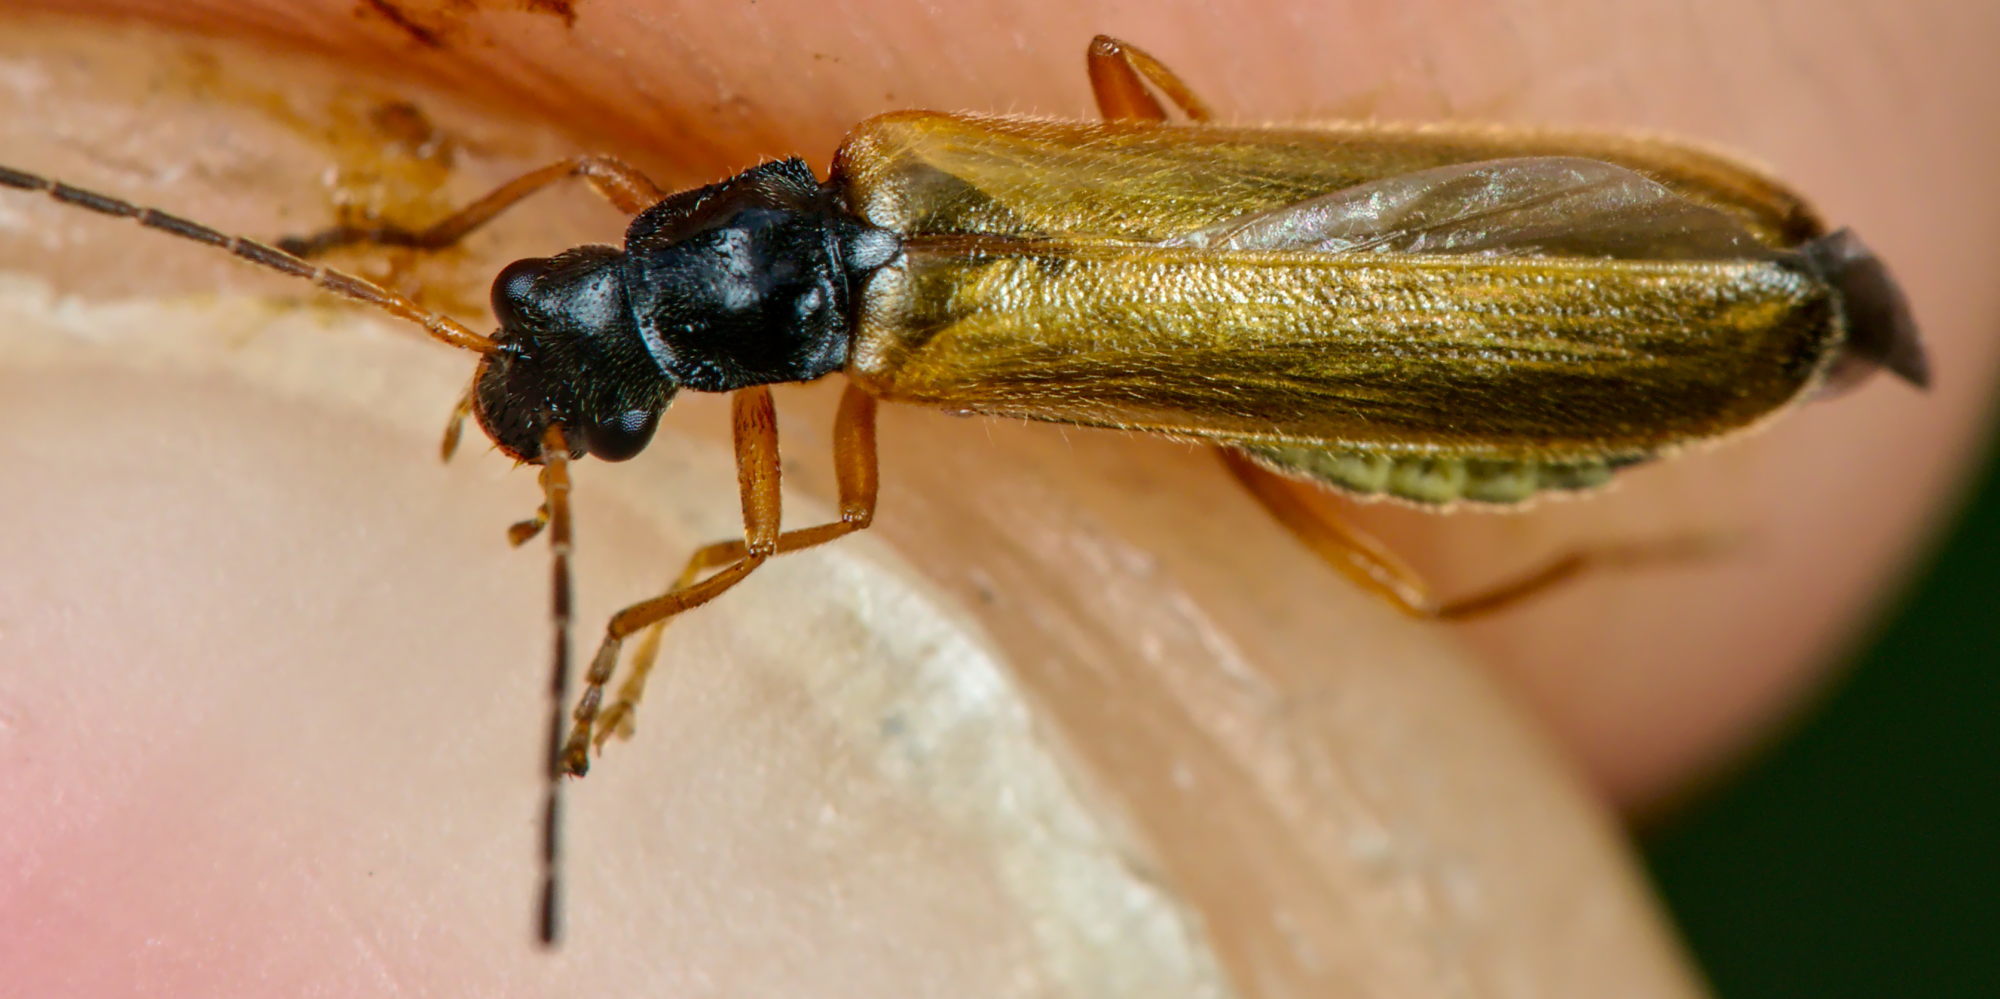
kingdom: Animalia
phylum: Arthropoda
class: Insecta
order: Coleoptera
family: Cantharidae
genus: Rhagonycha
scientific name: Rhagonycha lignosa
